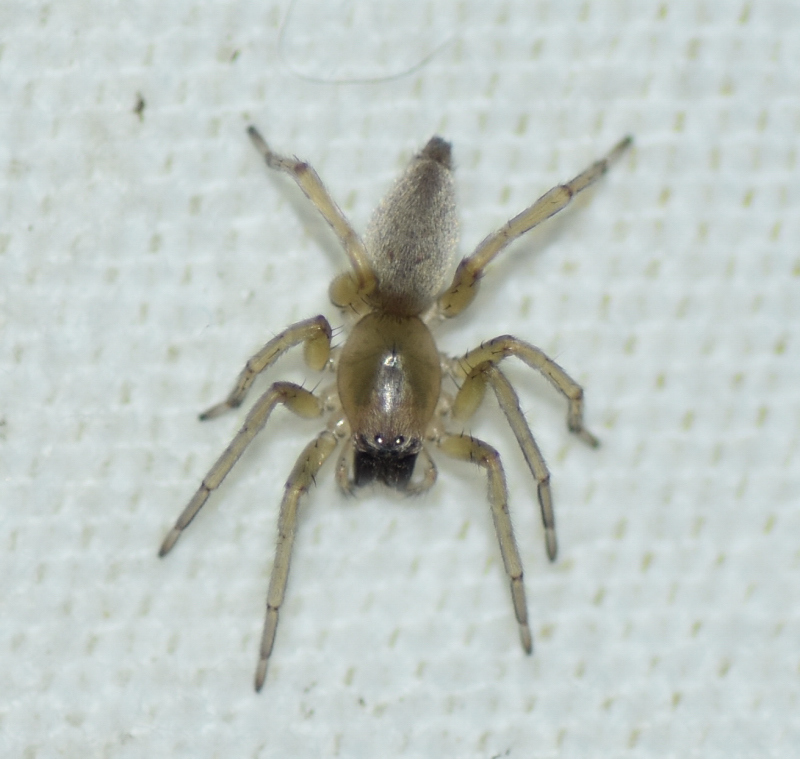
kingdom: Animalia
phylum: Arthropoda
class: Arachnida
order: Araneae
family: Cheiracanthiidae
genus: Cheiracanthium
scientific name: Cheiracanthium mildei
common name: Northern yellow sac spider
